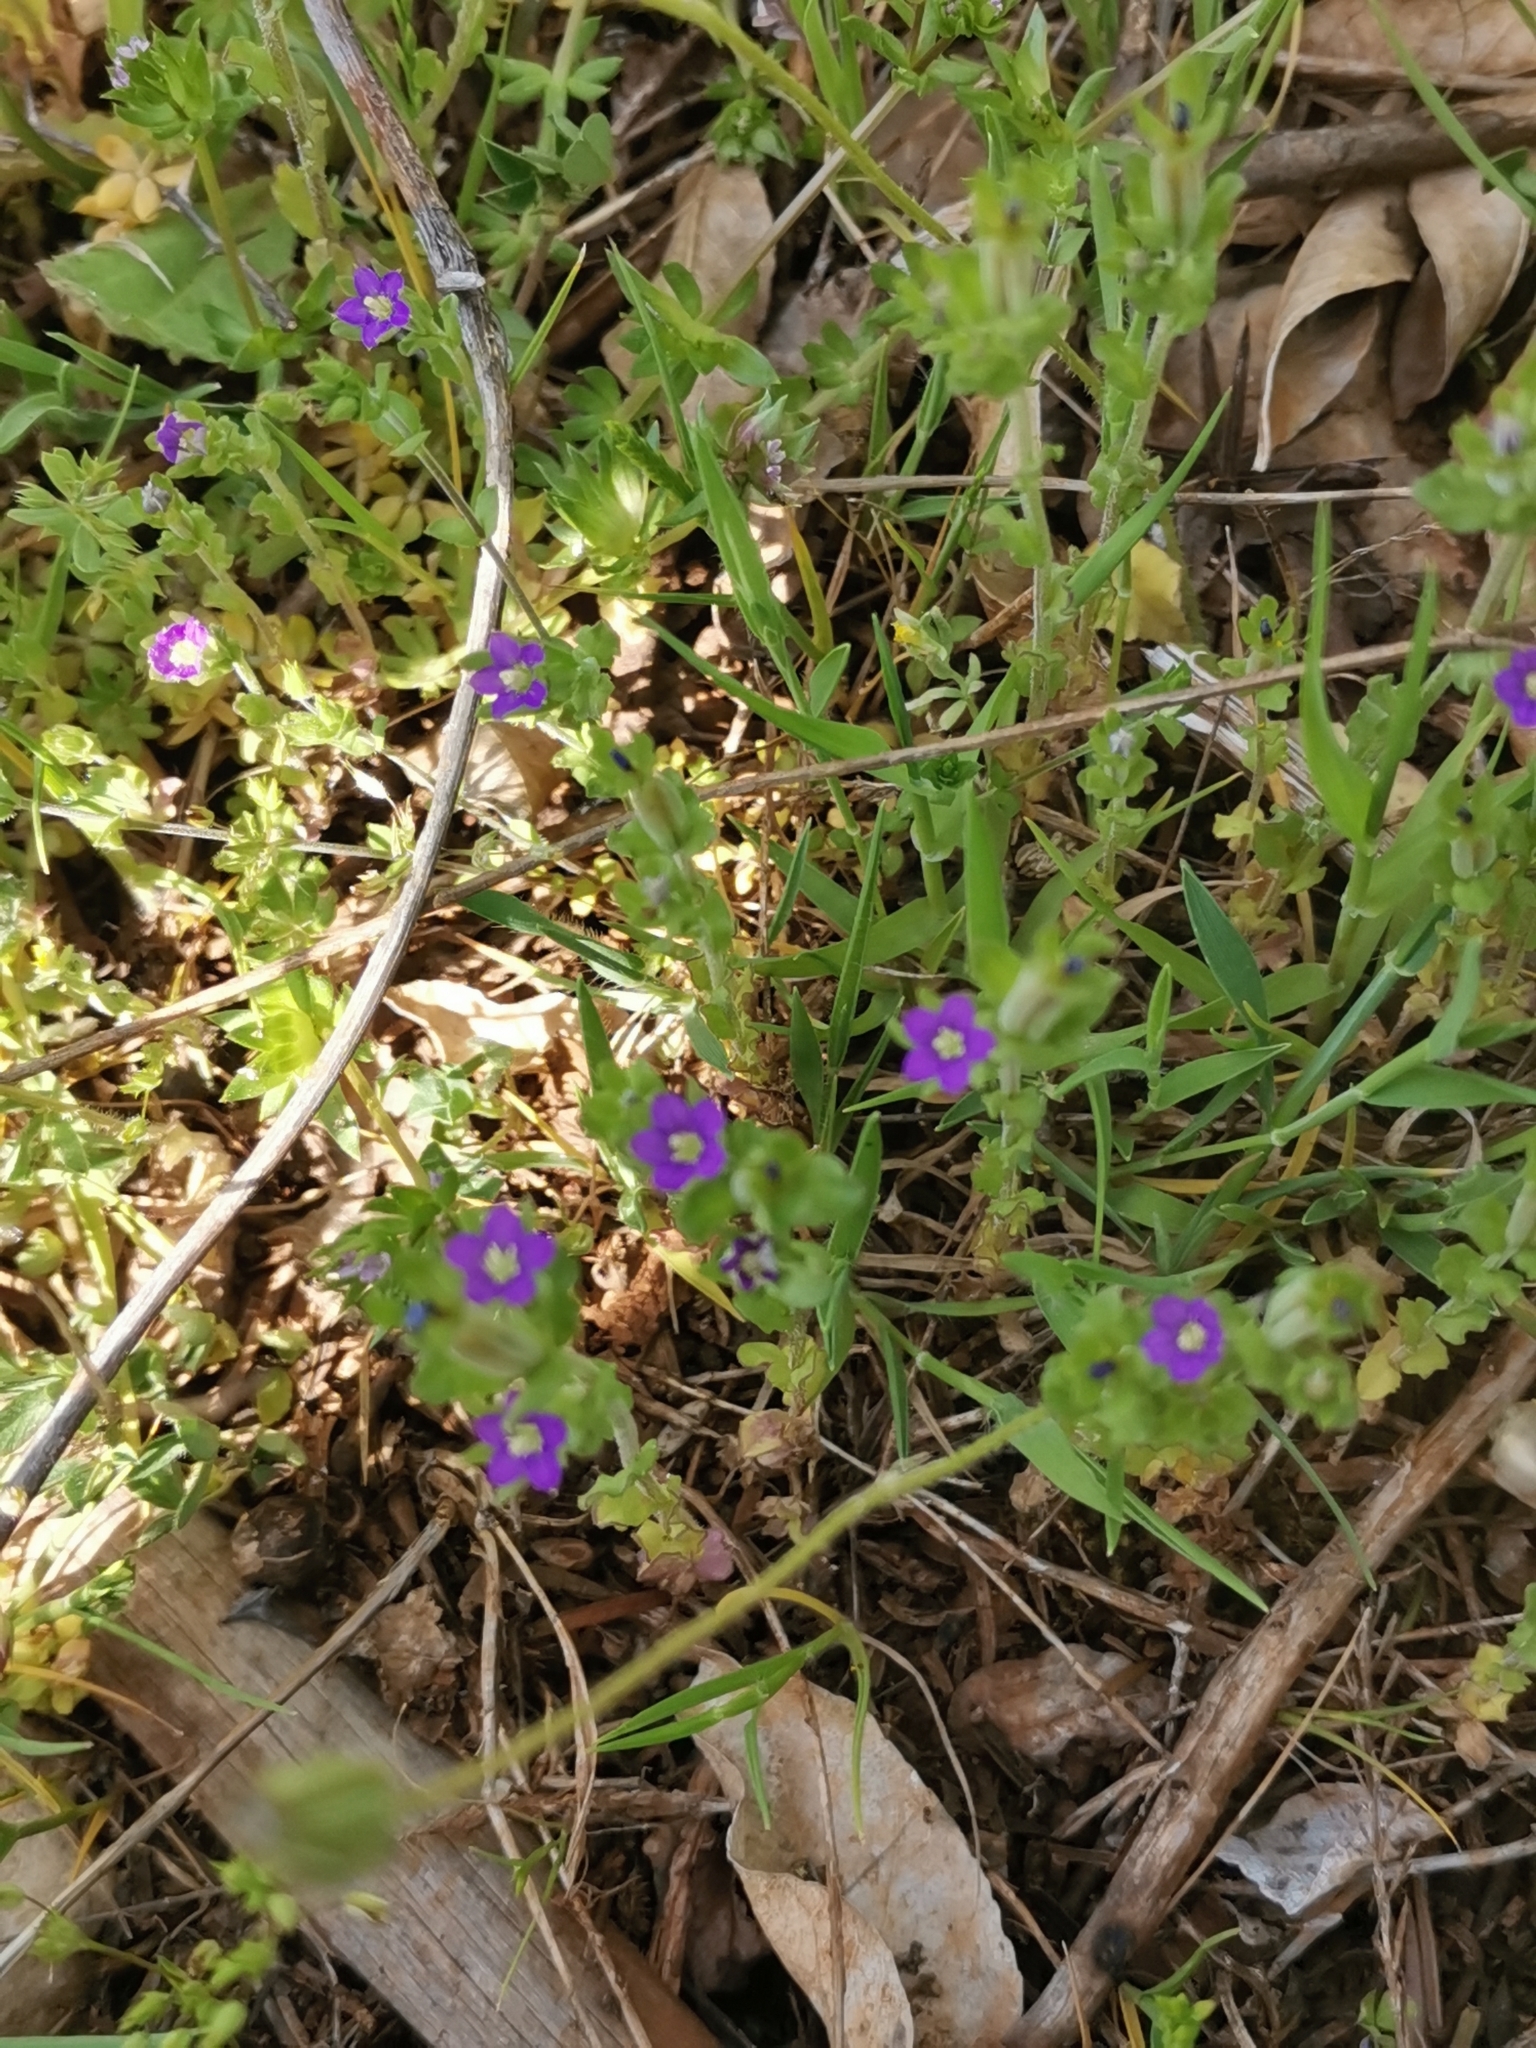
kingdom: Plantae
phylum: Tracheophyta
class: Magnoliopsida
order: Asterales
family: Campanulaceae
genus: Legousia
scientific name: Legousia hybrida
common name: Venus's-looking-glass
